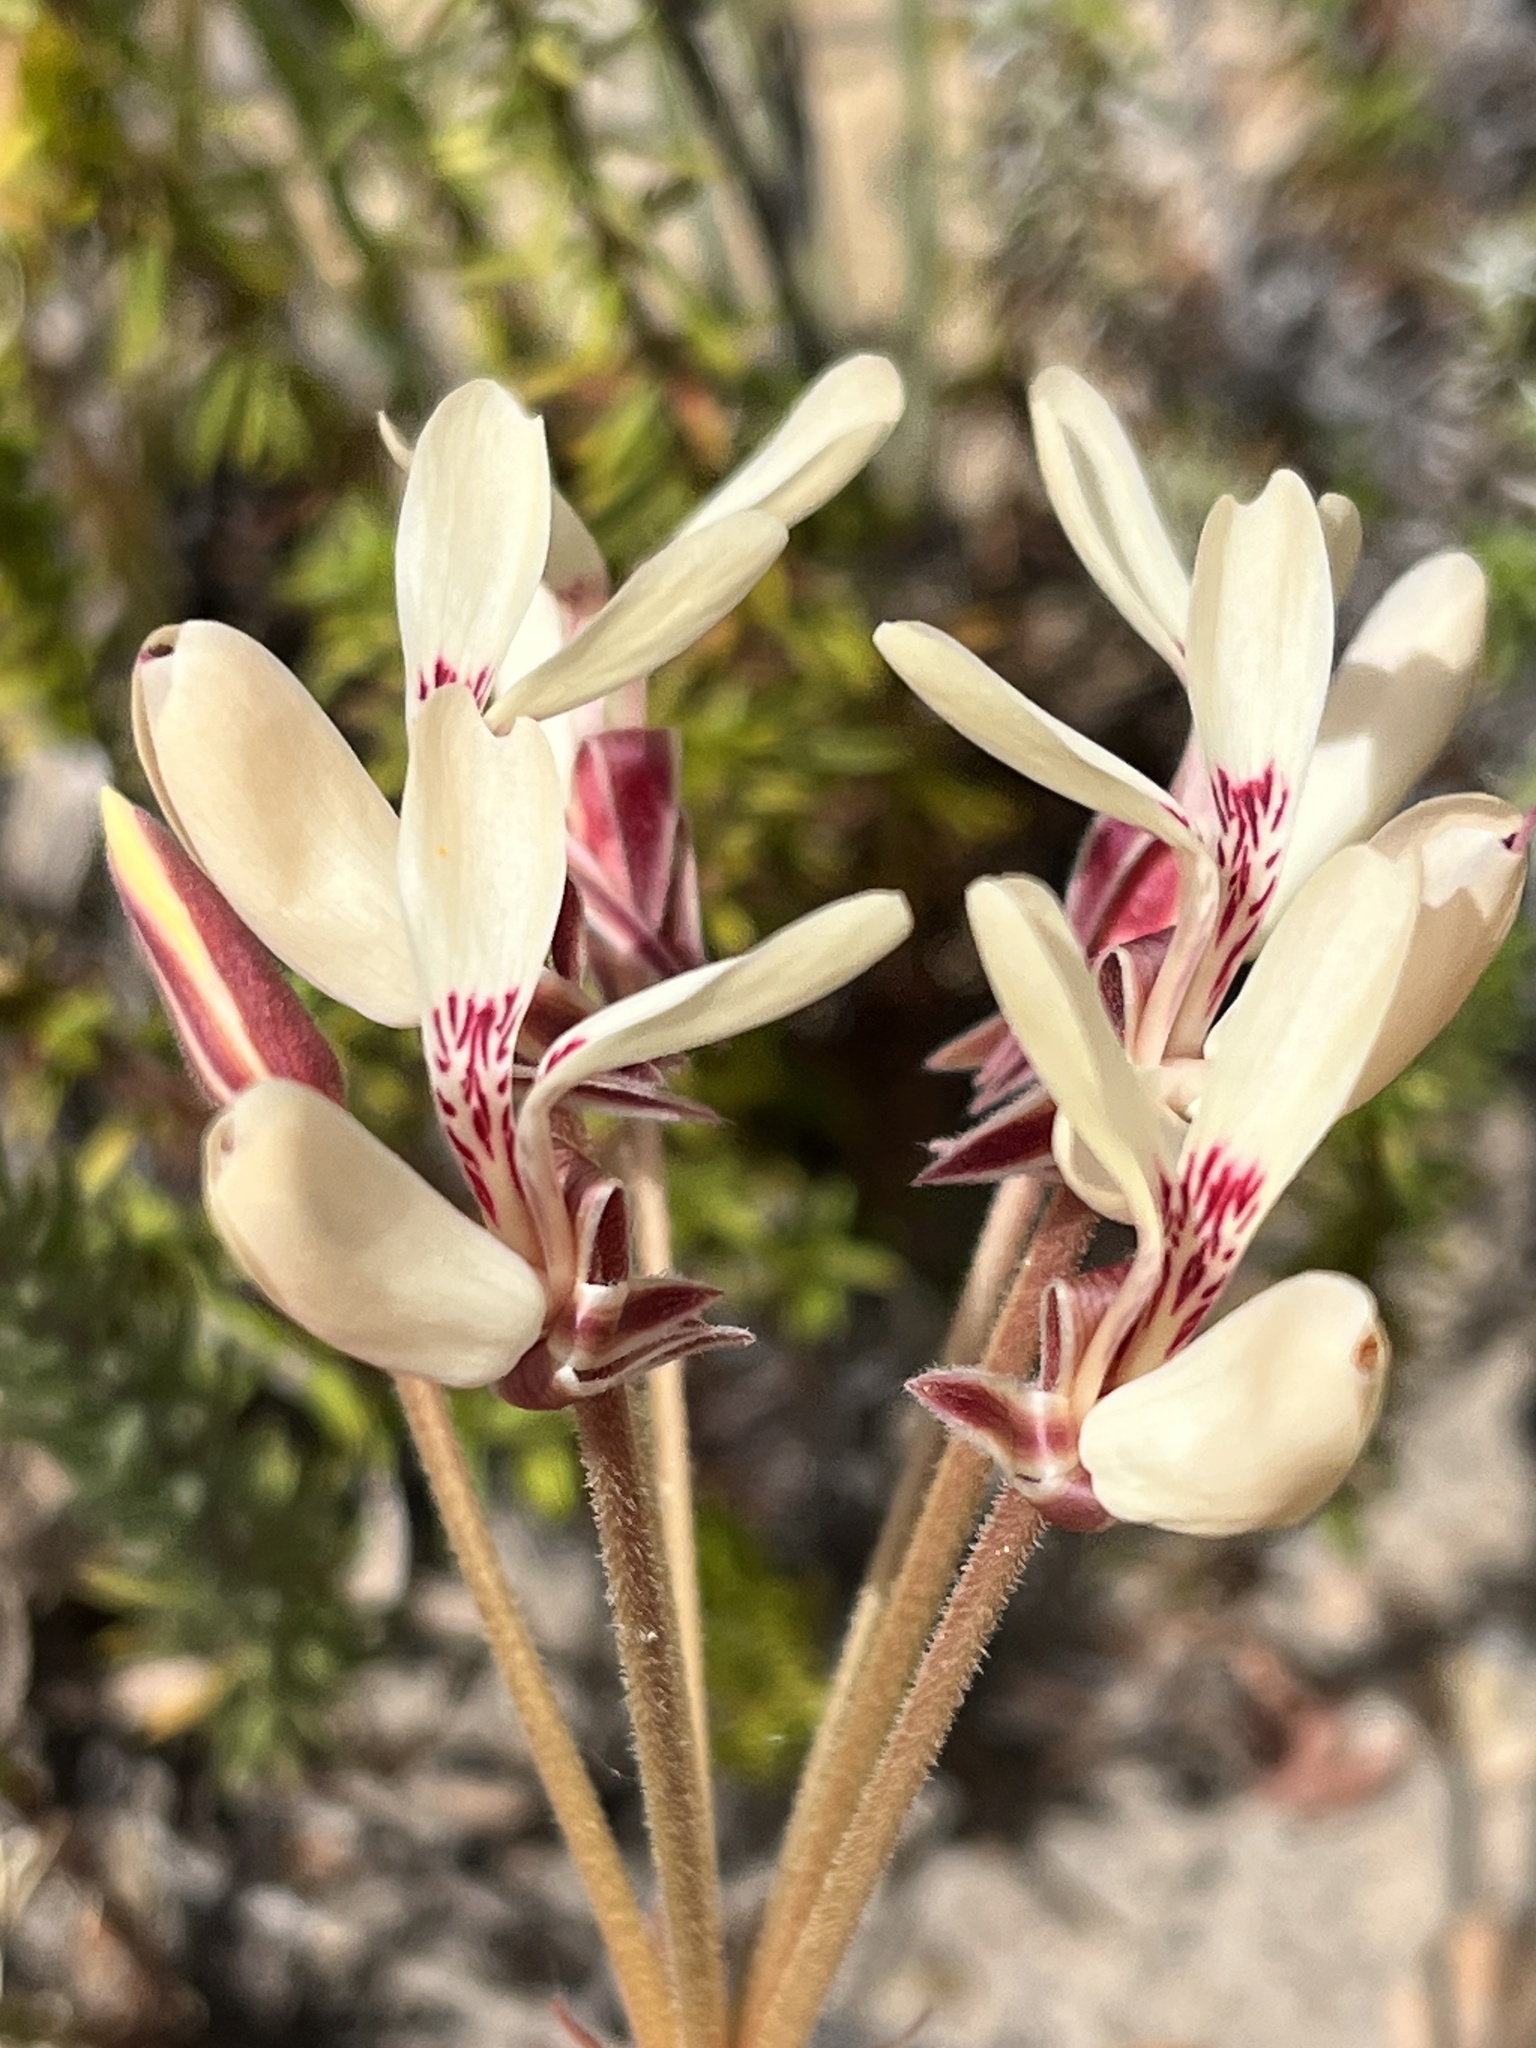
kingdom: Plantae
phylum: Tracheophyta
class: Magnoliopsida
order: Geraniales
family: Geraniaceae
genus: Pelargonium
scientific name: Pelargonium rapaceum
